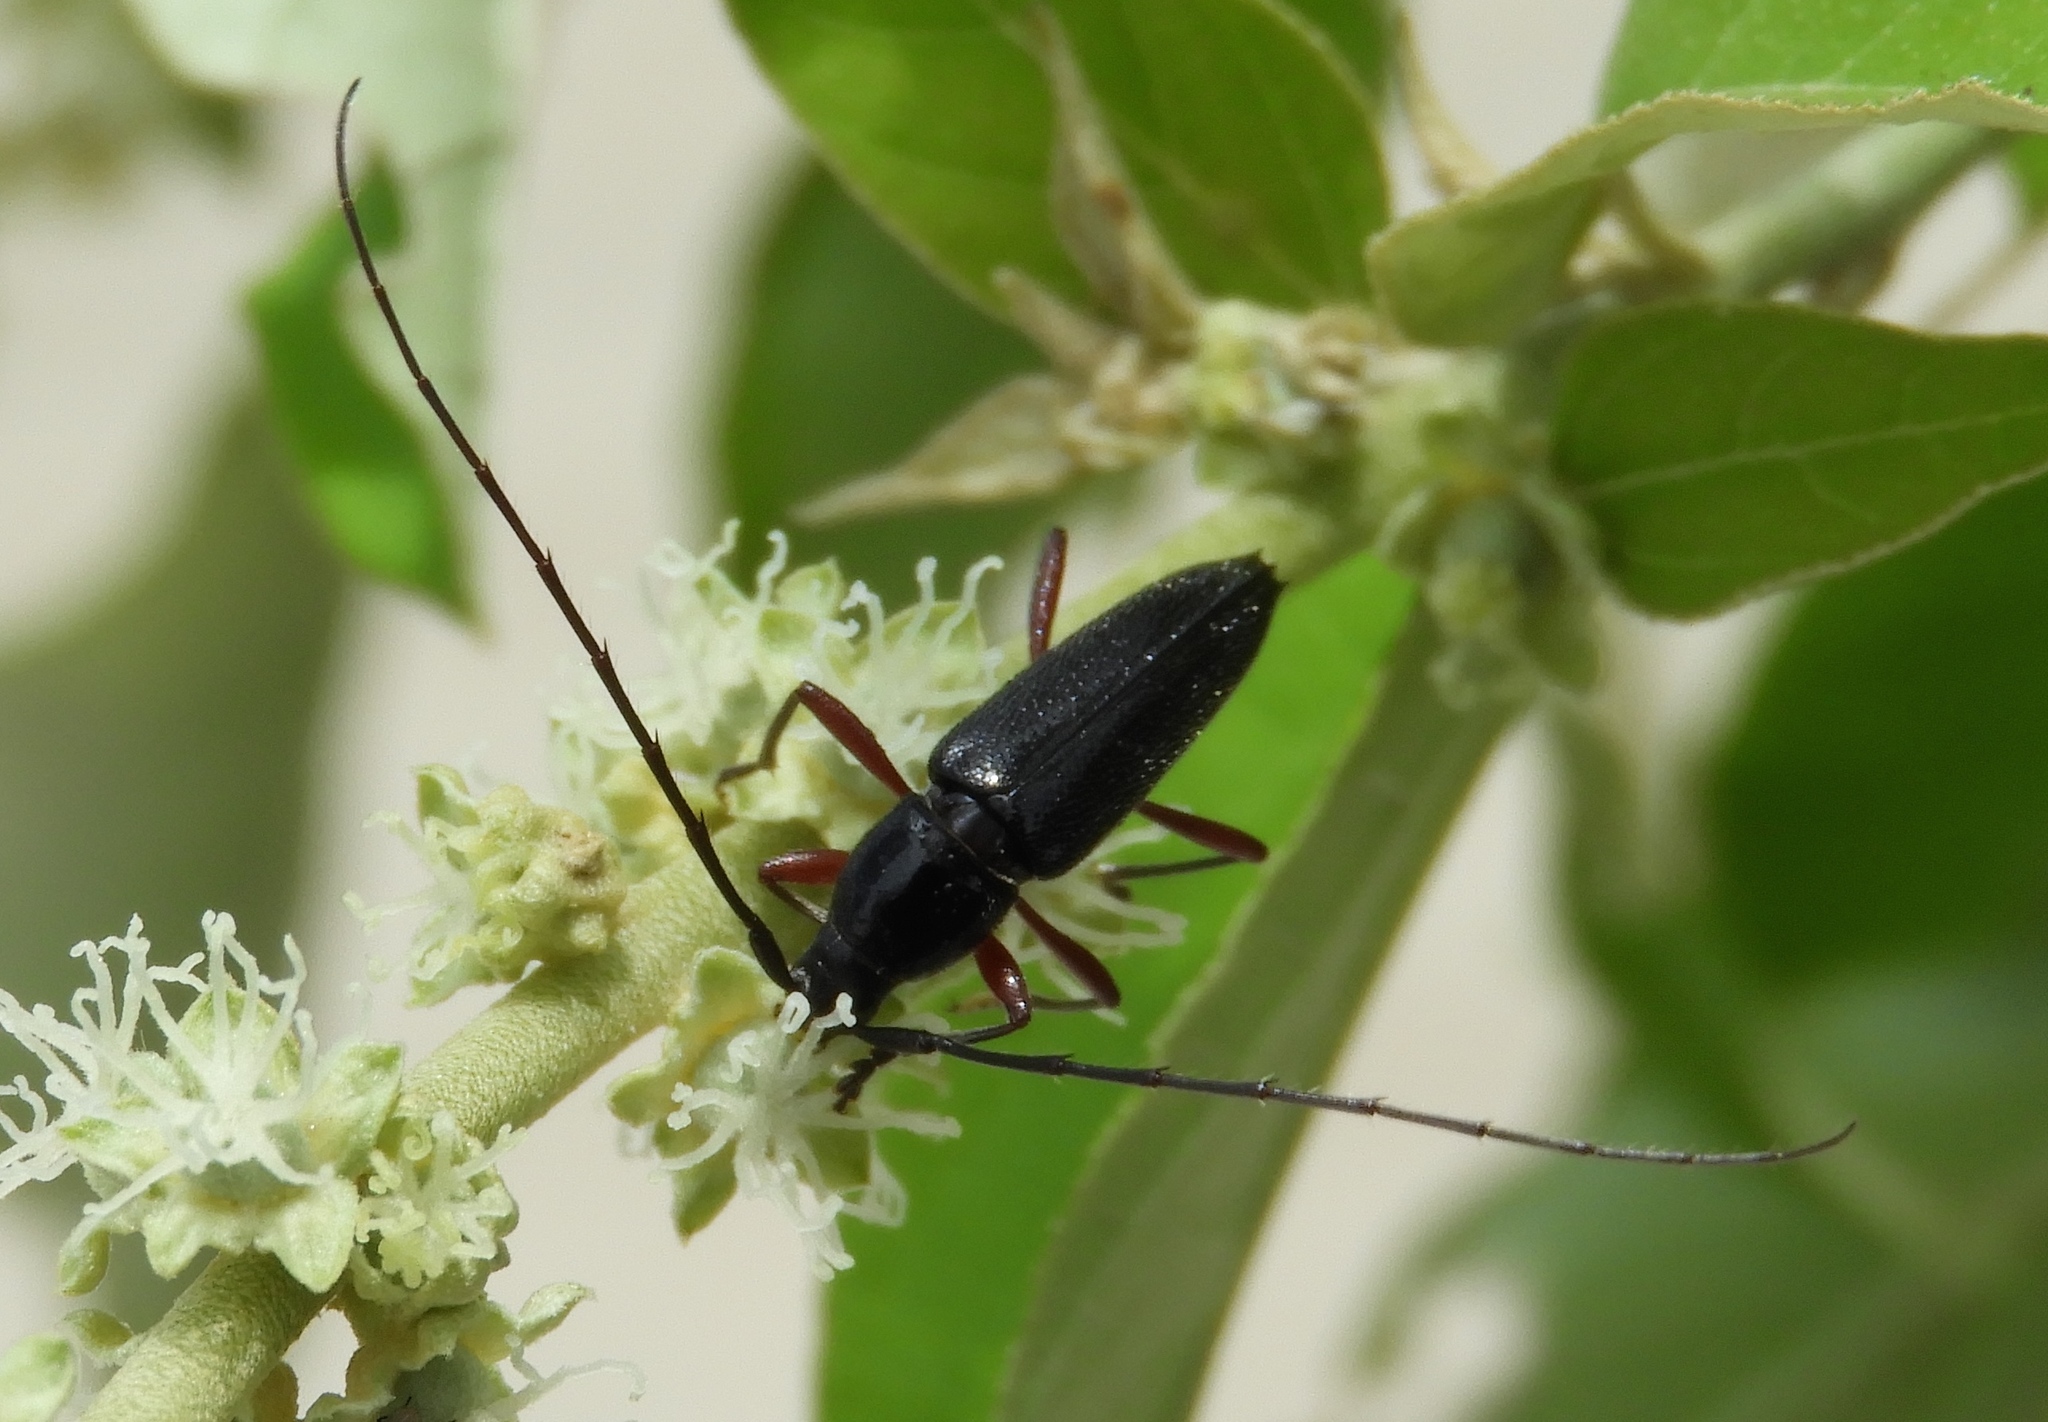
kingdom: Animalia
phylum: Arthropoda
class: Insecta
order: Coleoptera
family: Cerambycidae
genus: Stenosphenus
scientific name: Stenosphenus
